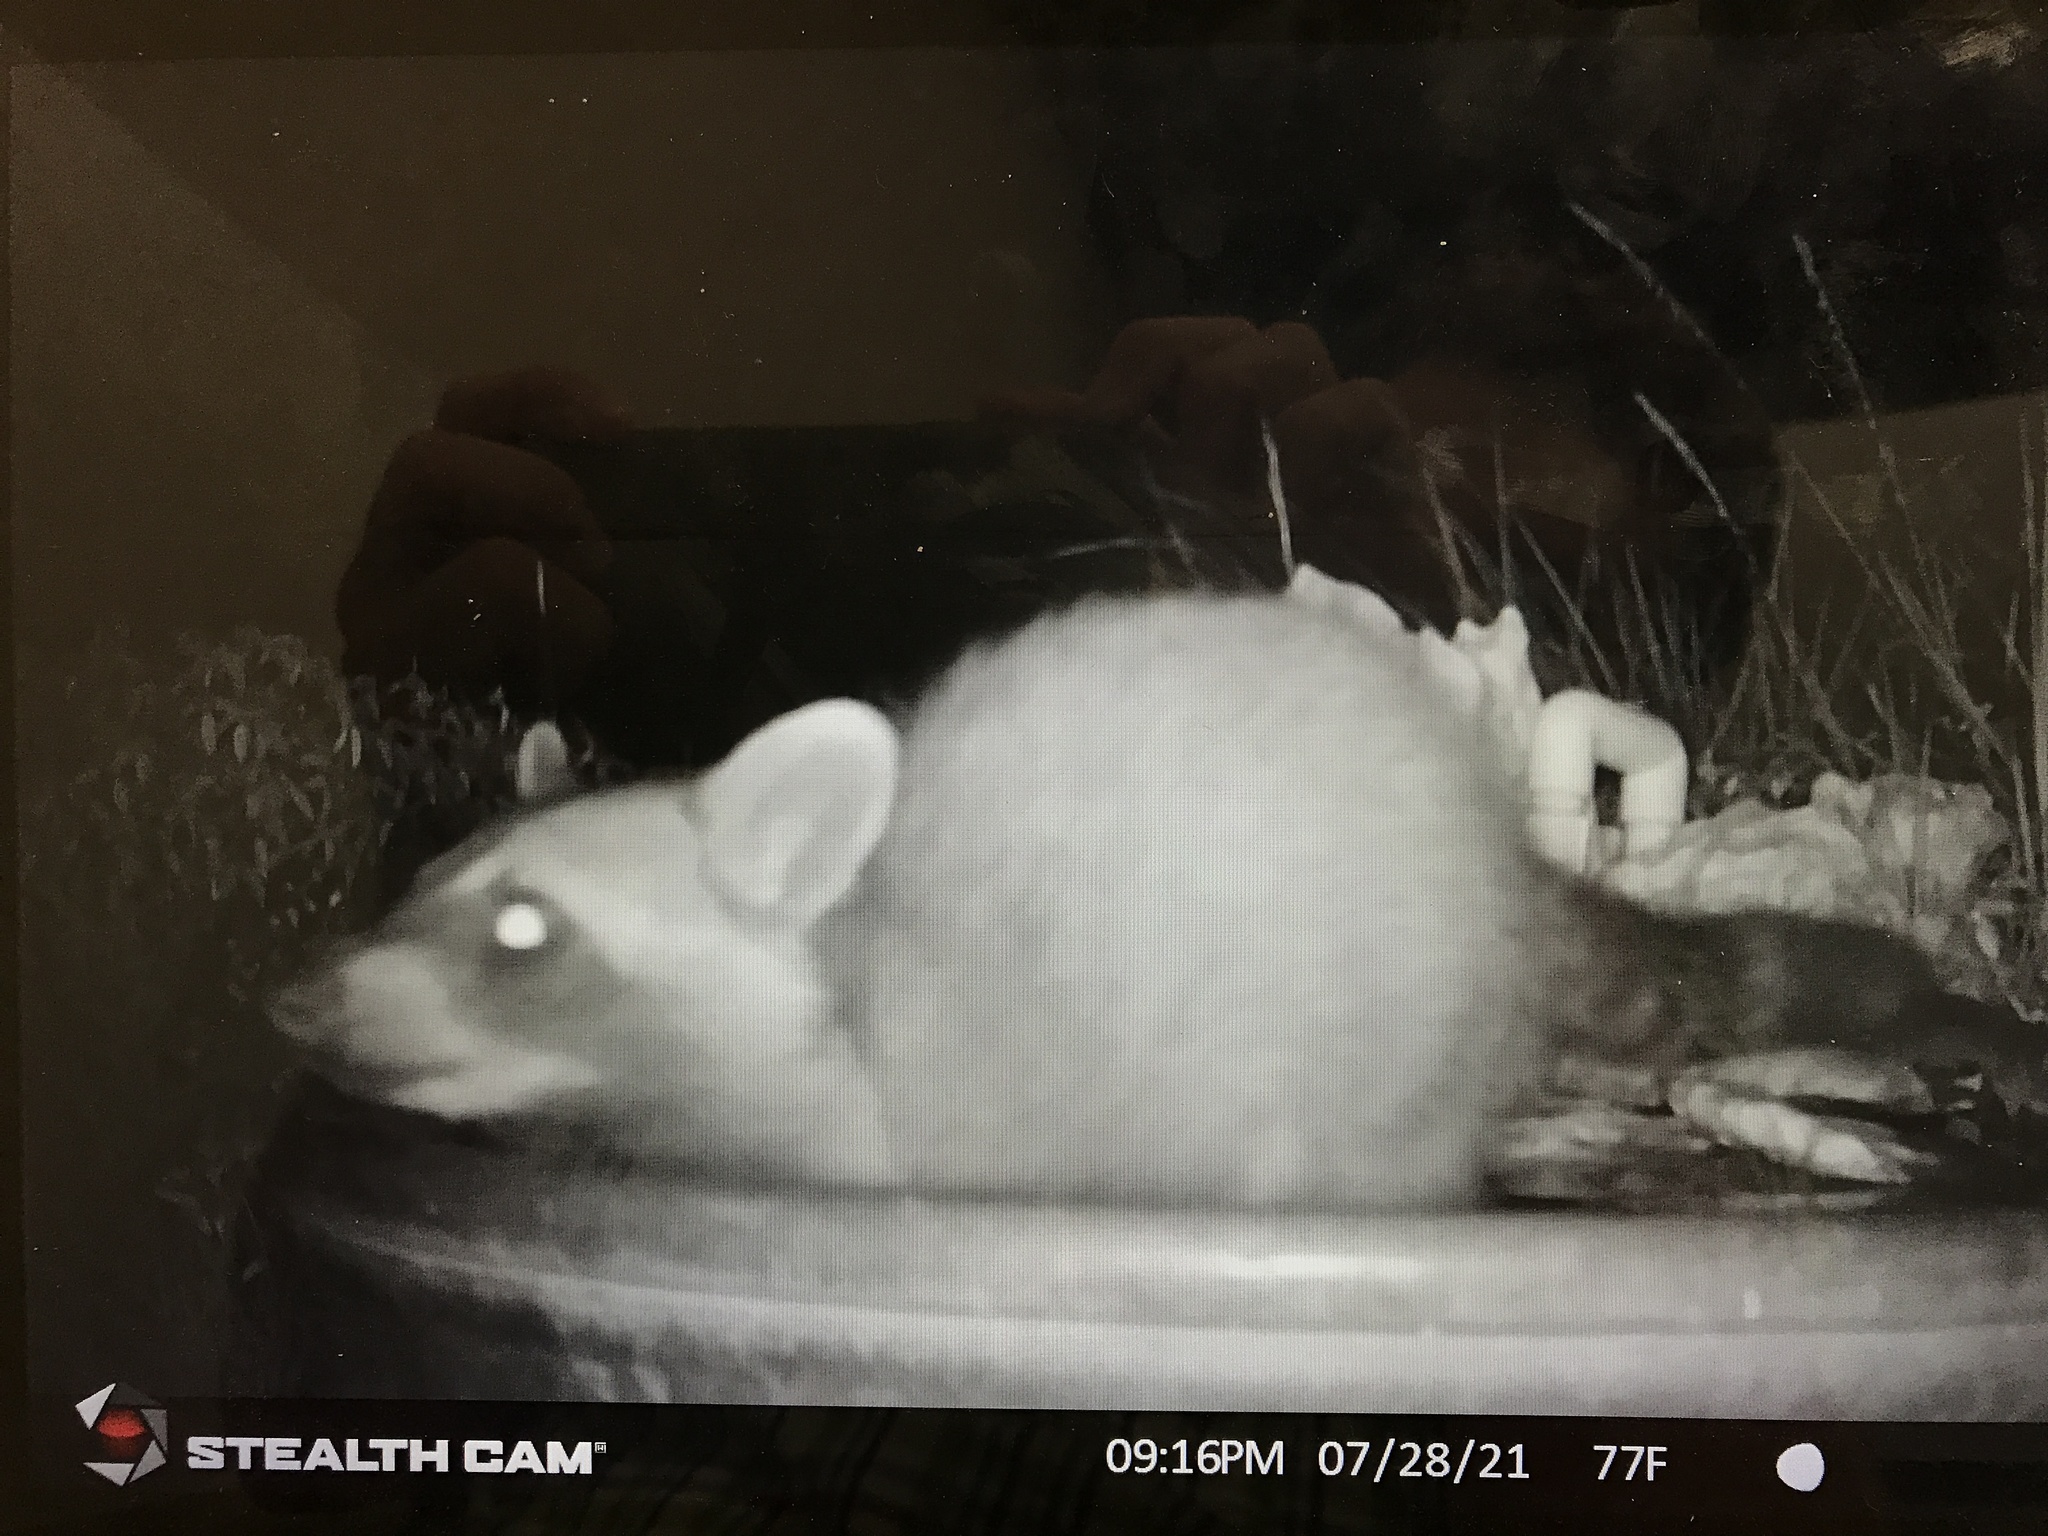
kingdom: Animalia
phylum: Chordata
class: Mammalia
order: Carnivora
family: Procyonidae
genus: Procyon
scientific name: Procyon lotor
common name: Raccoon
